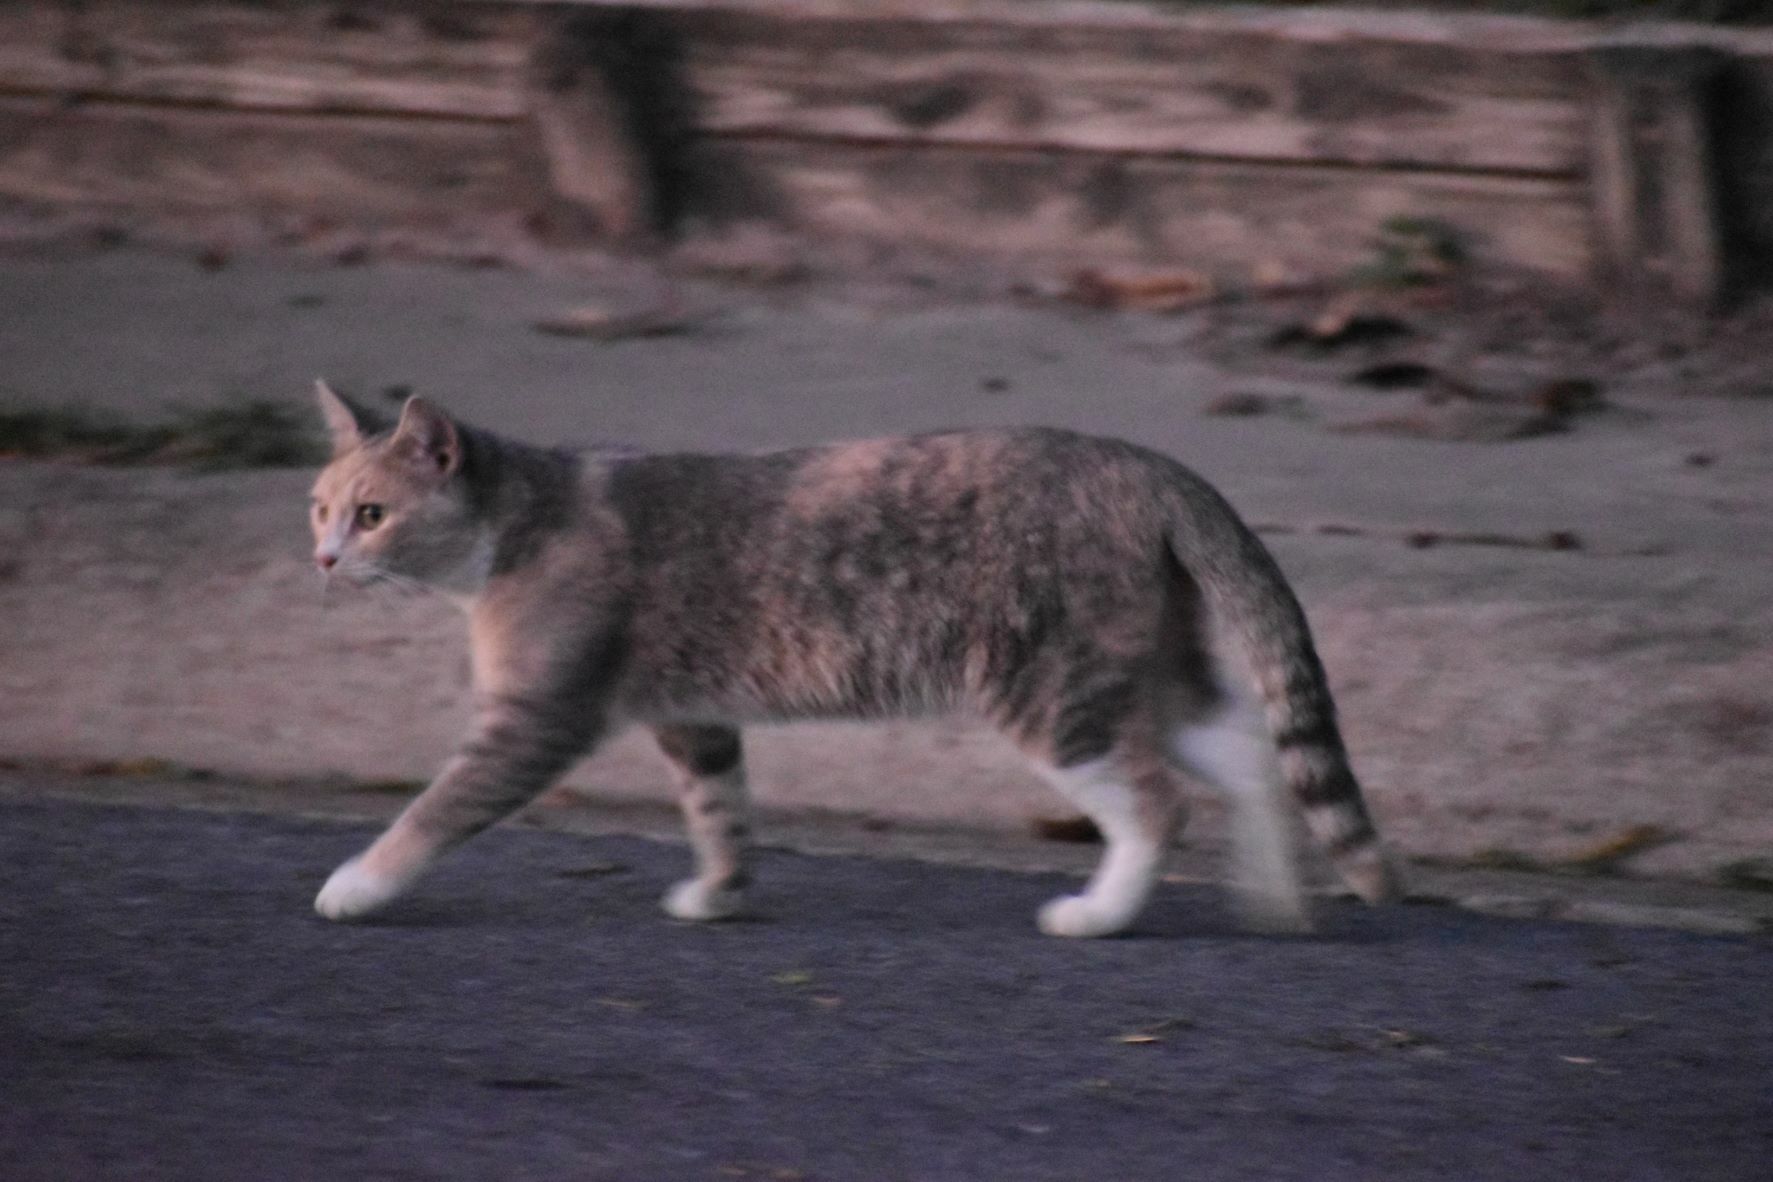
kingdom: Animalia
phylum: Chordata
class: Mammalia
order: Carnivora
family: Felidae
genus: Felis
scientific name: Felis catus
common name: Domestic cat
